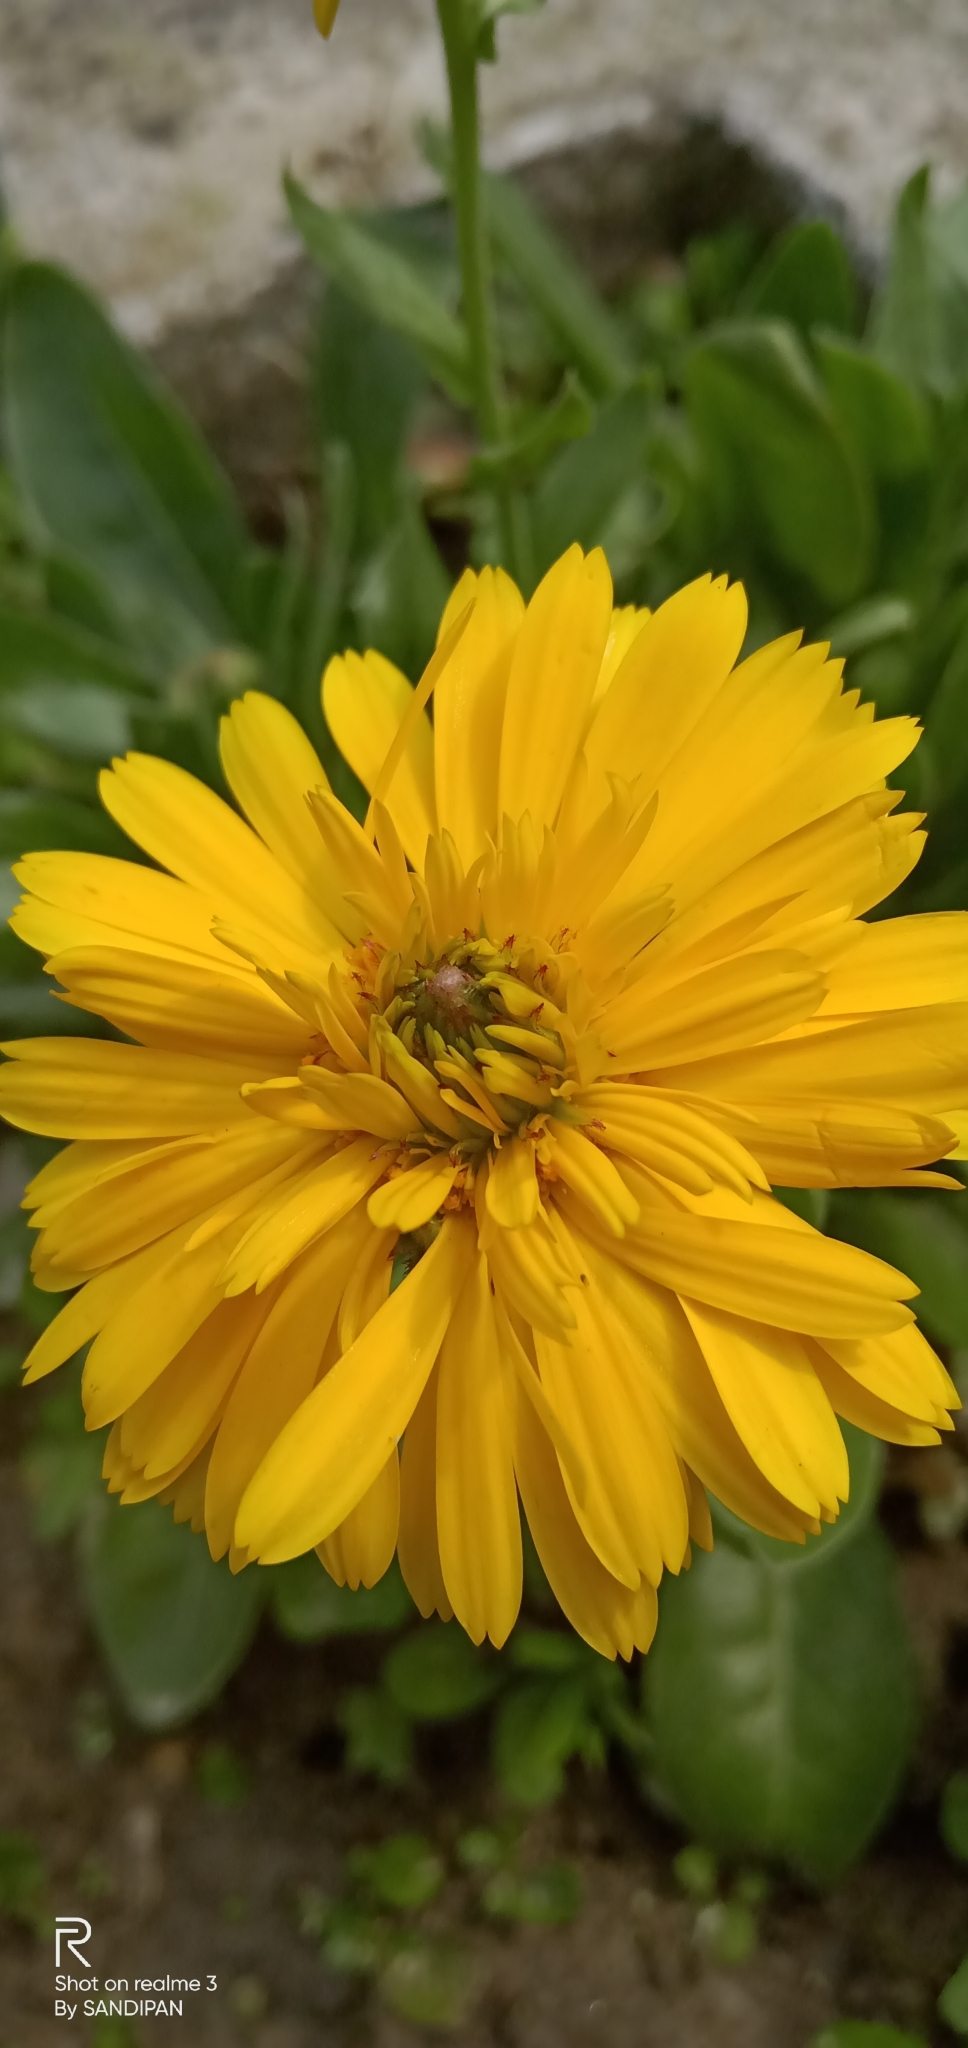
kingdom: Plantae
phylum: Tracheophyta
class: Magnoliopsida
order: Asterales
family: Asteraceae
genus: Calendula
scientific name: Calendula officinalis
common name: Pot marigold
